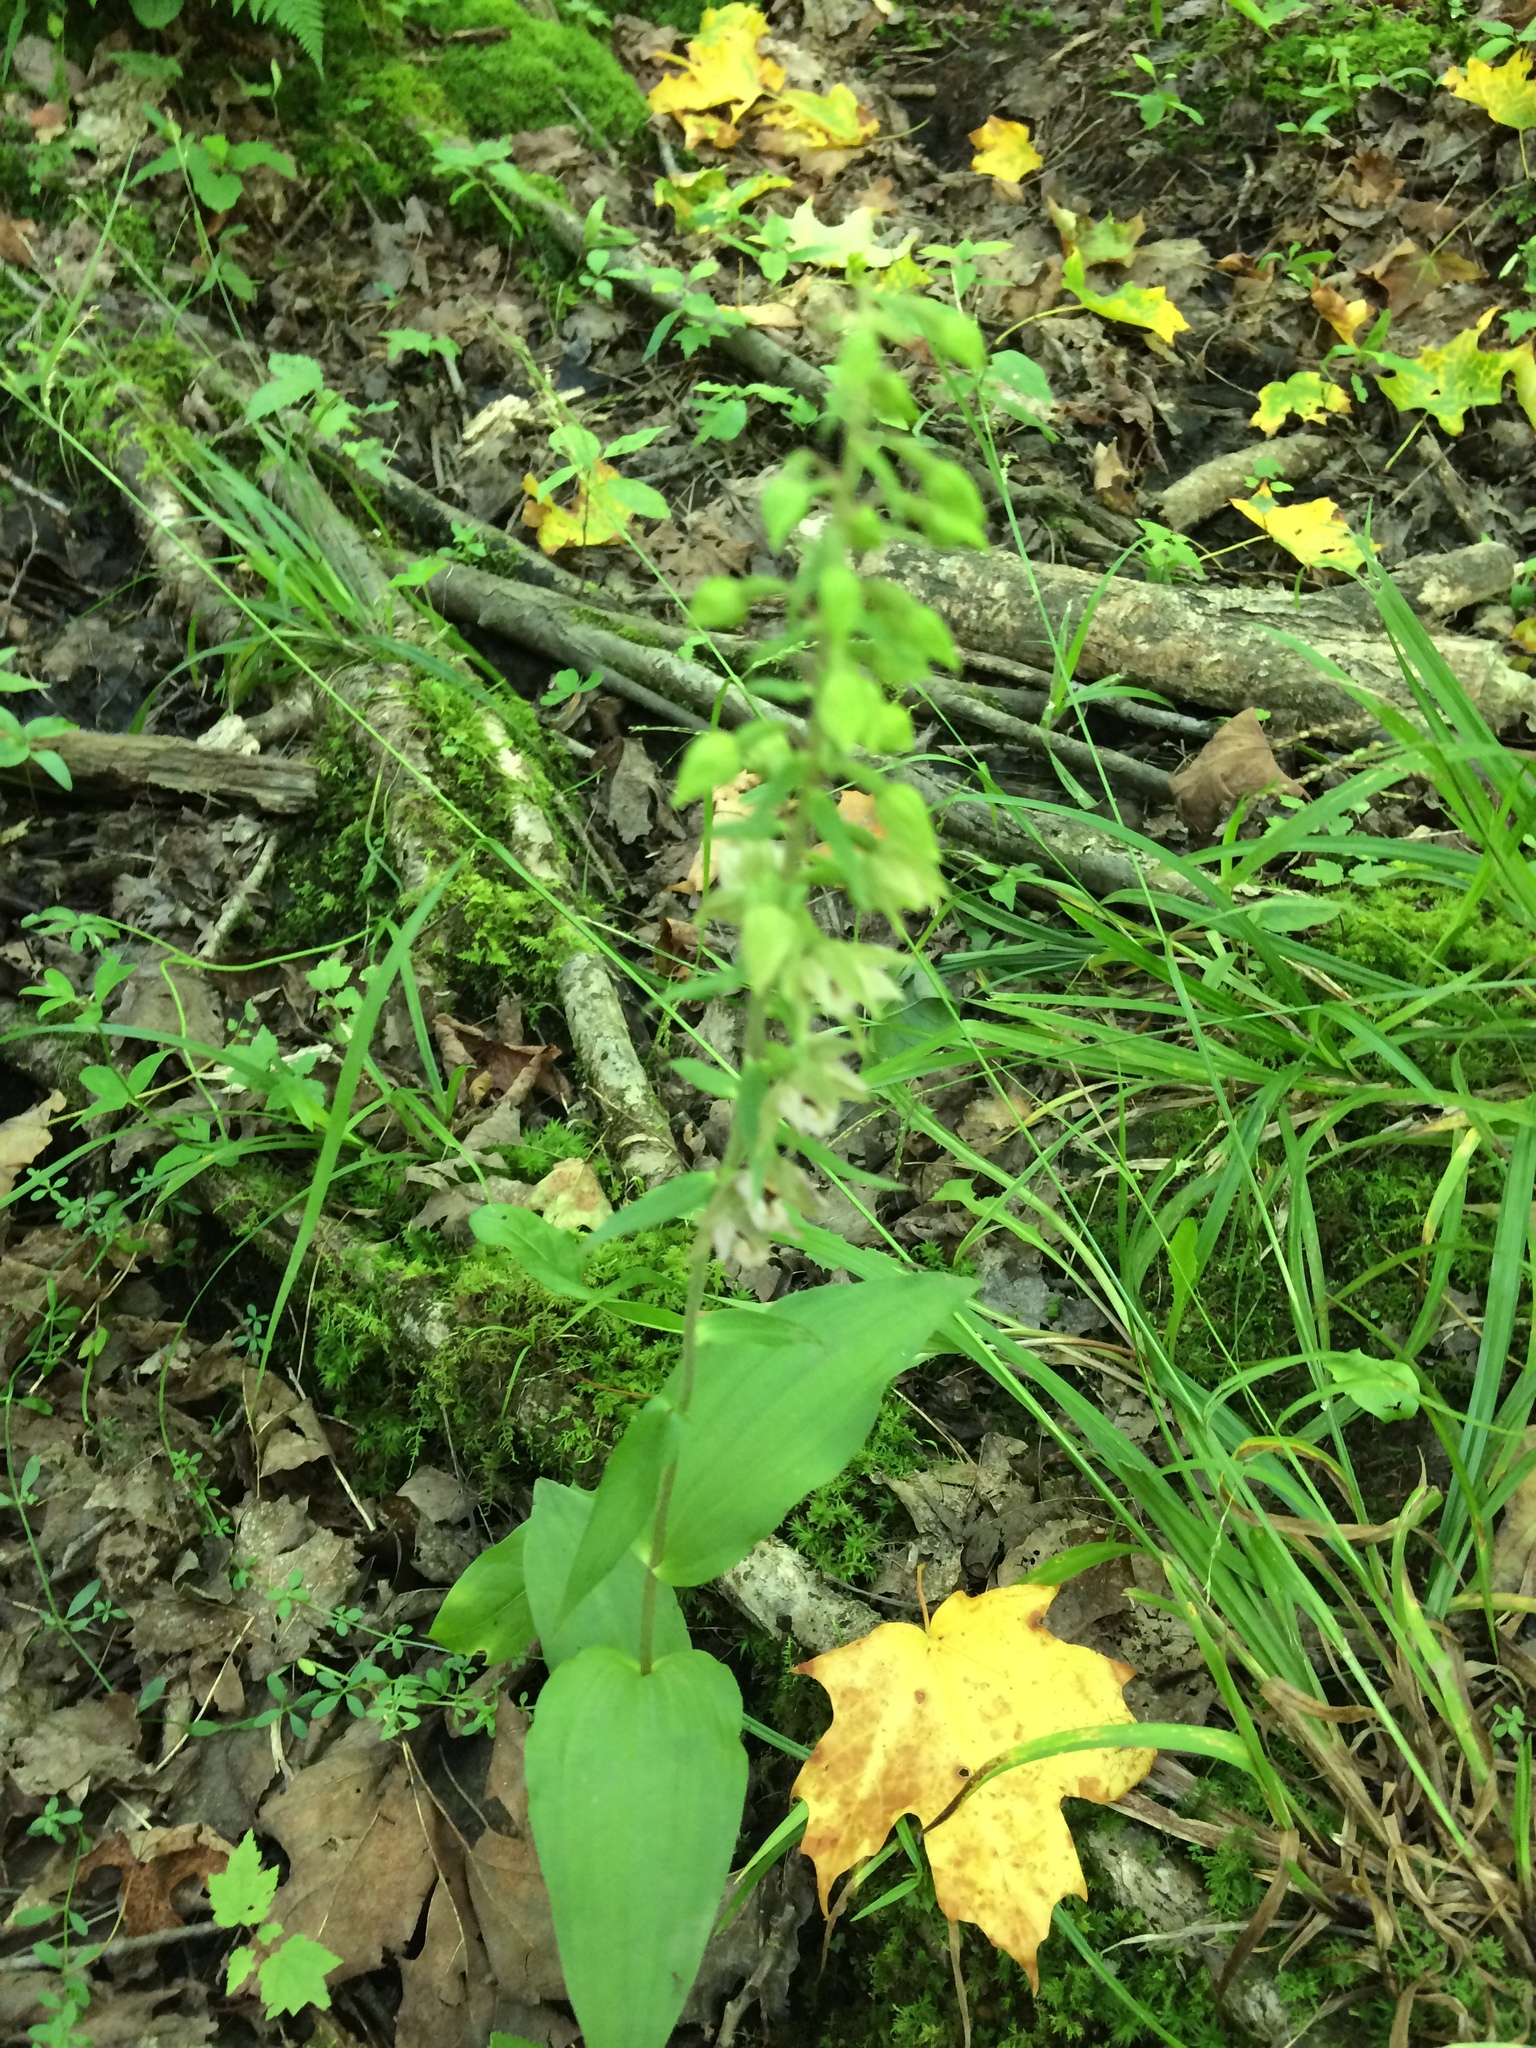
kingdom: Plantae
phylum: Tracheophyta
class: Liliopsida
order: Asparagales
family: Orchidaceae
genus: Epipactis
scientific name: Epipactis helleborine
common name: Broad-leaved helleborine
